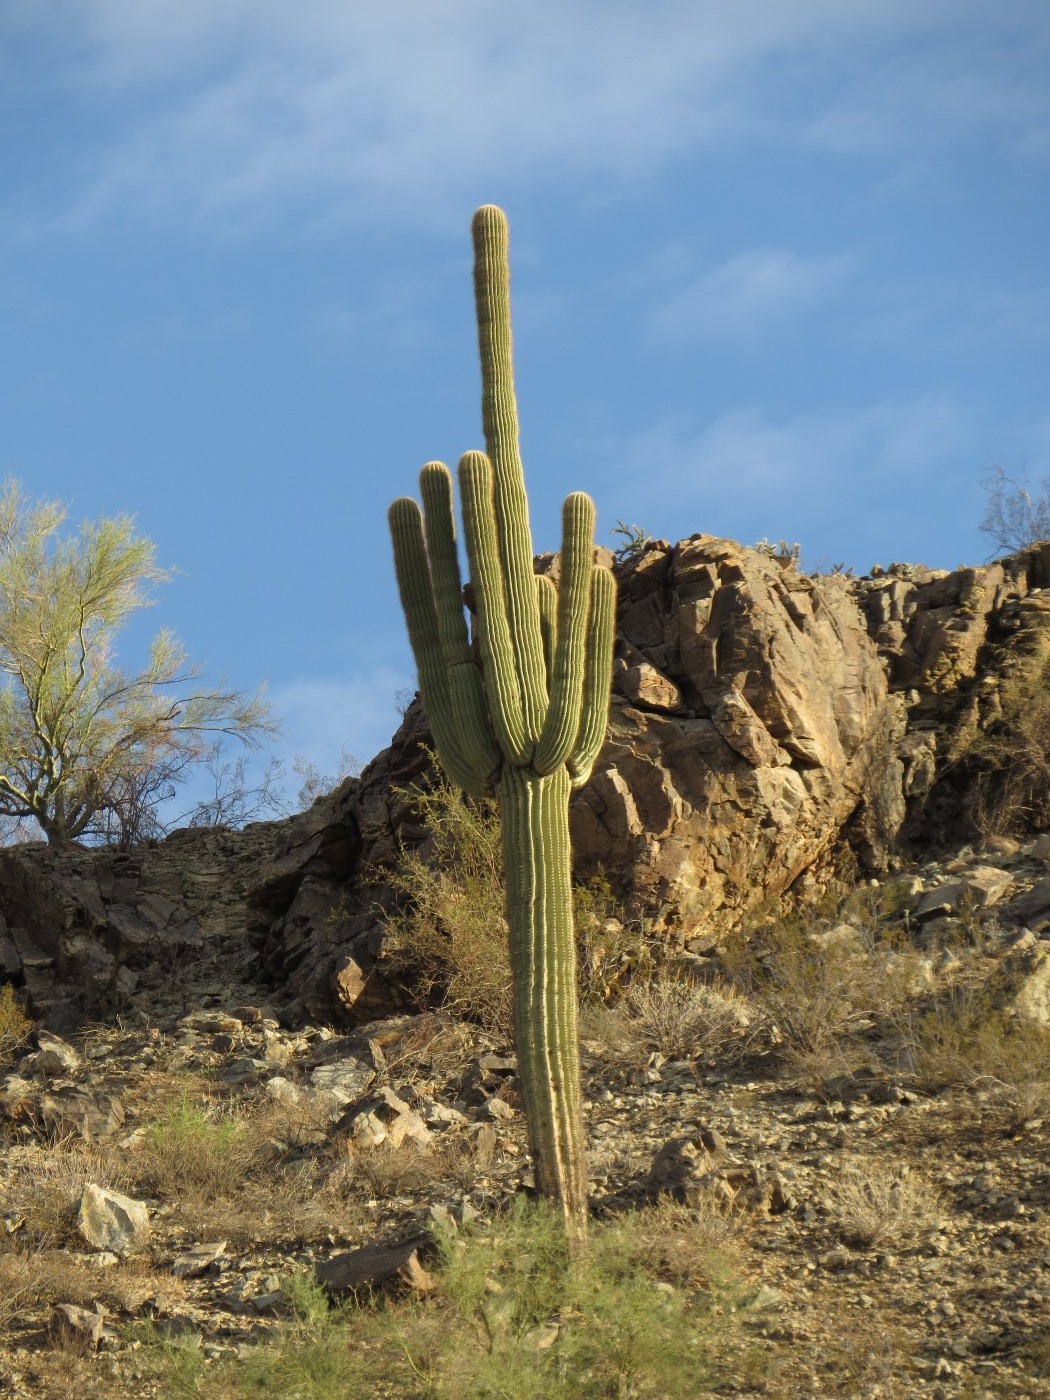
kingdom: Plantae
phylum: Tracheophyta
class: Magnoliopsida
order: Caryophyllales
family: Cactaceae
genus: Carnegiea
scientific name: Carnegiea gigantea
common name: Saguaro
